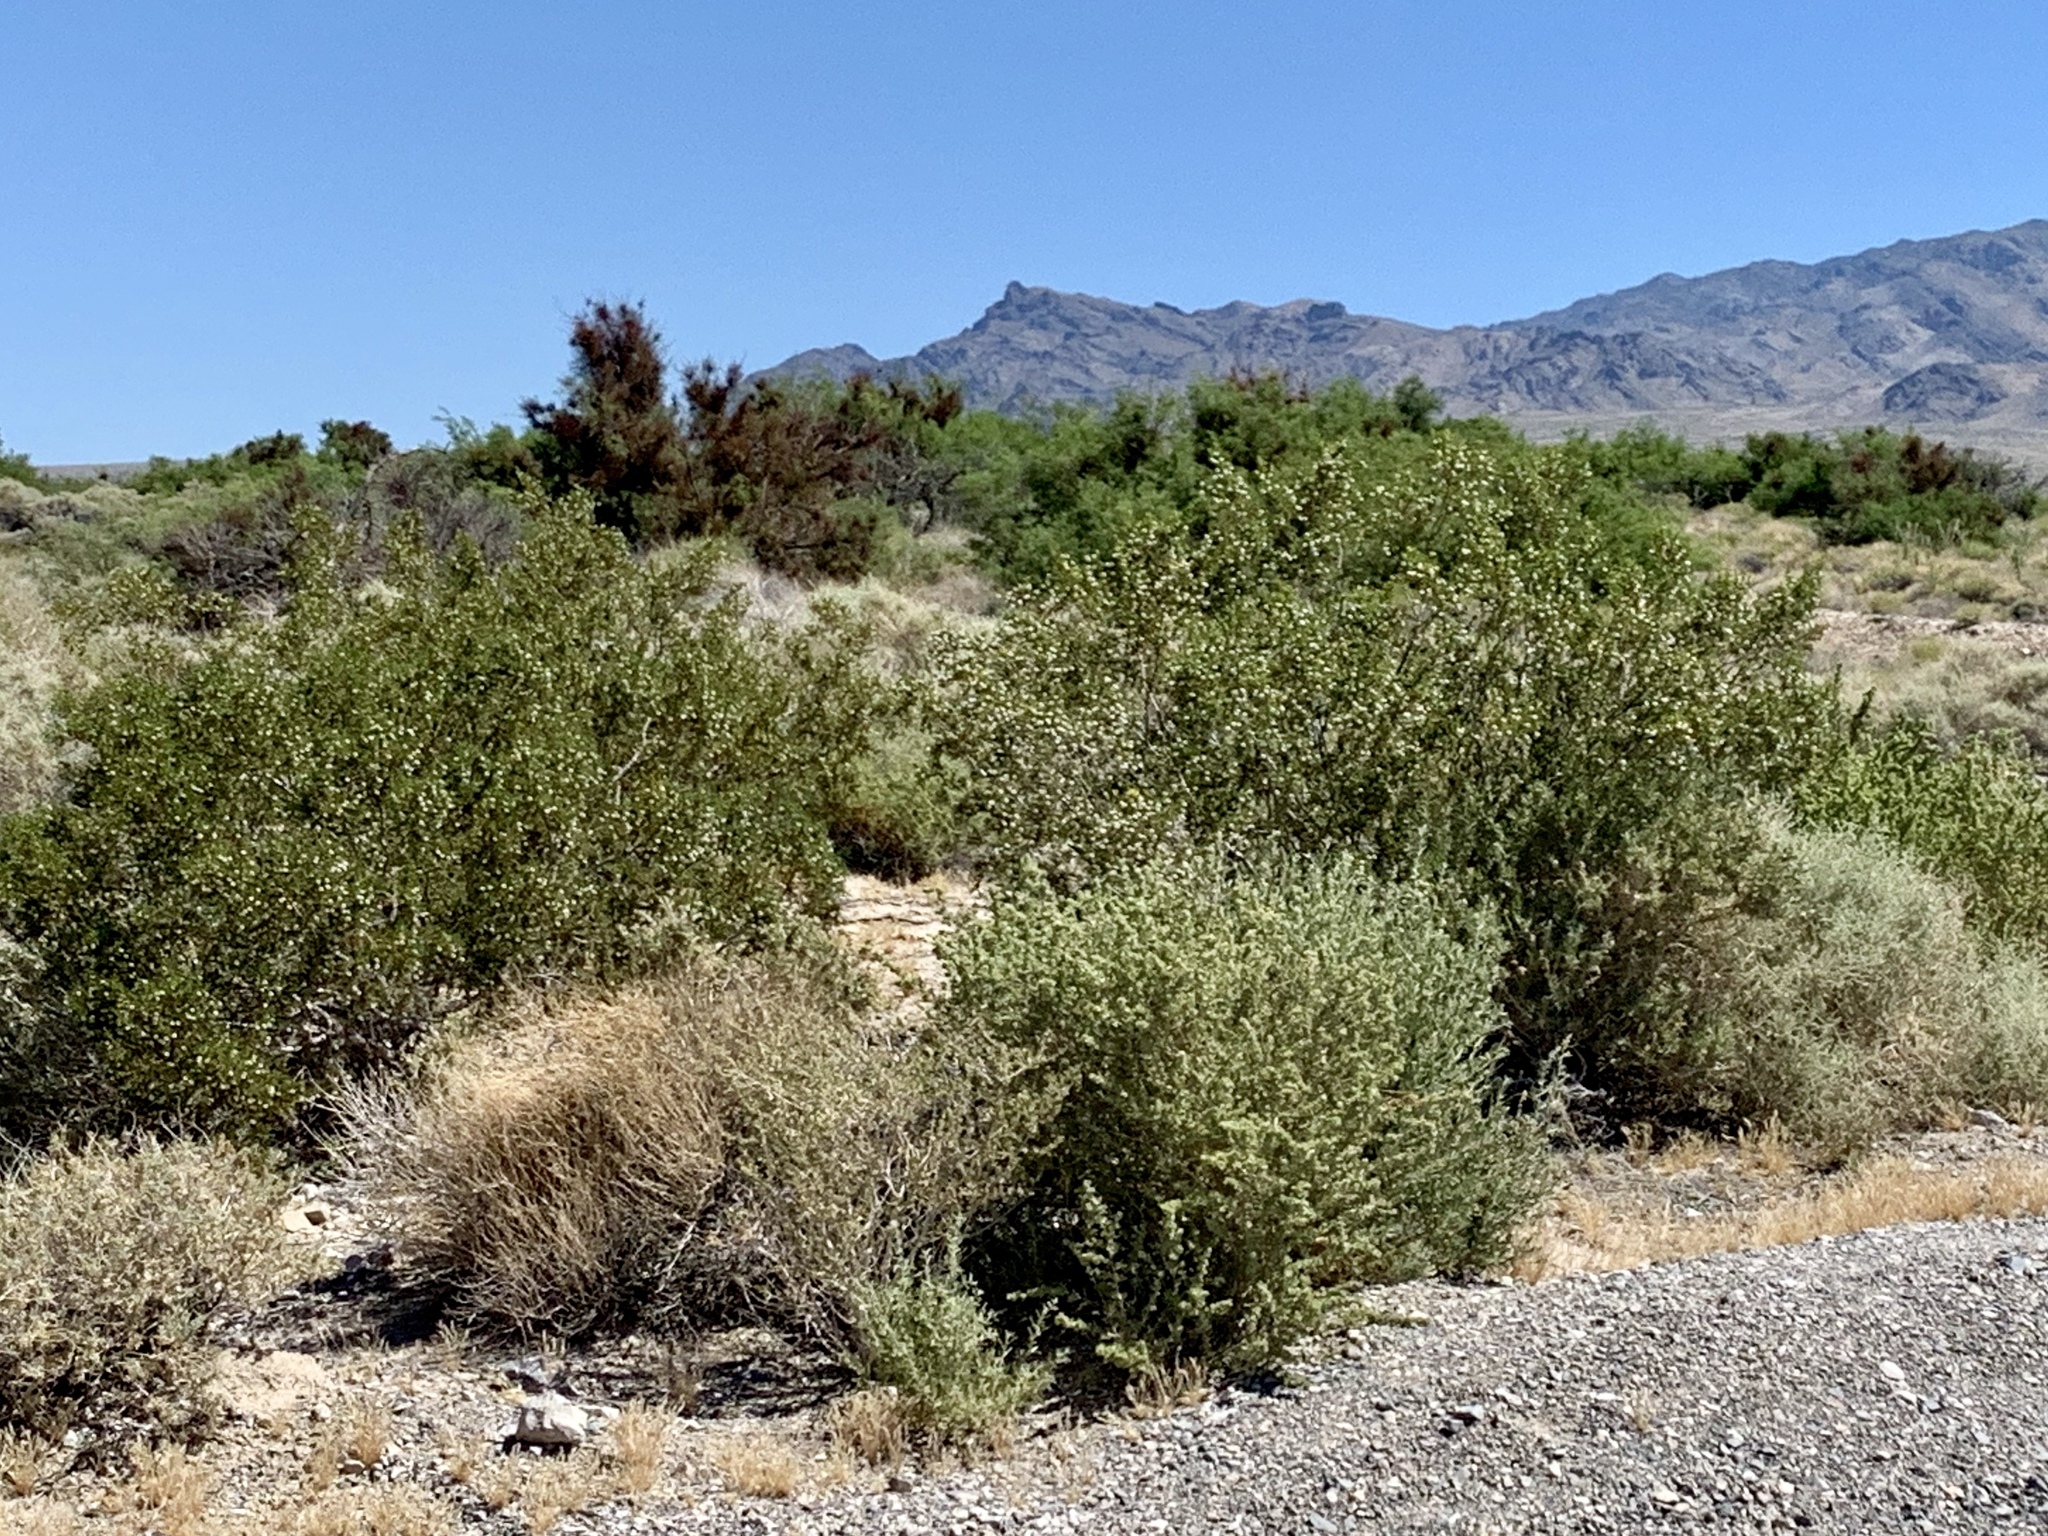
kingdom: Plantae
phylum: Tracheophyta
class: Magnoliopsida
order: Zygophyllales
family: Zygophyllaceae
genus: Larrea
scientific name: Larrea tridentata
